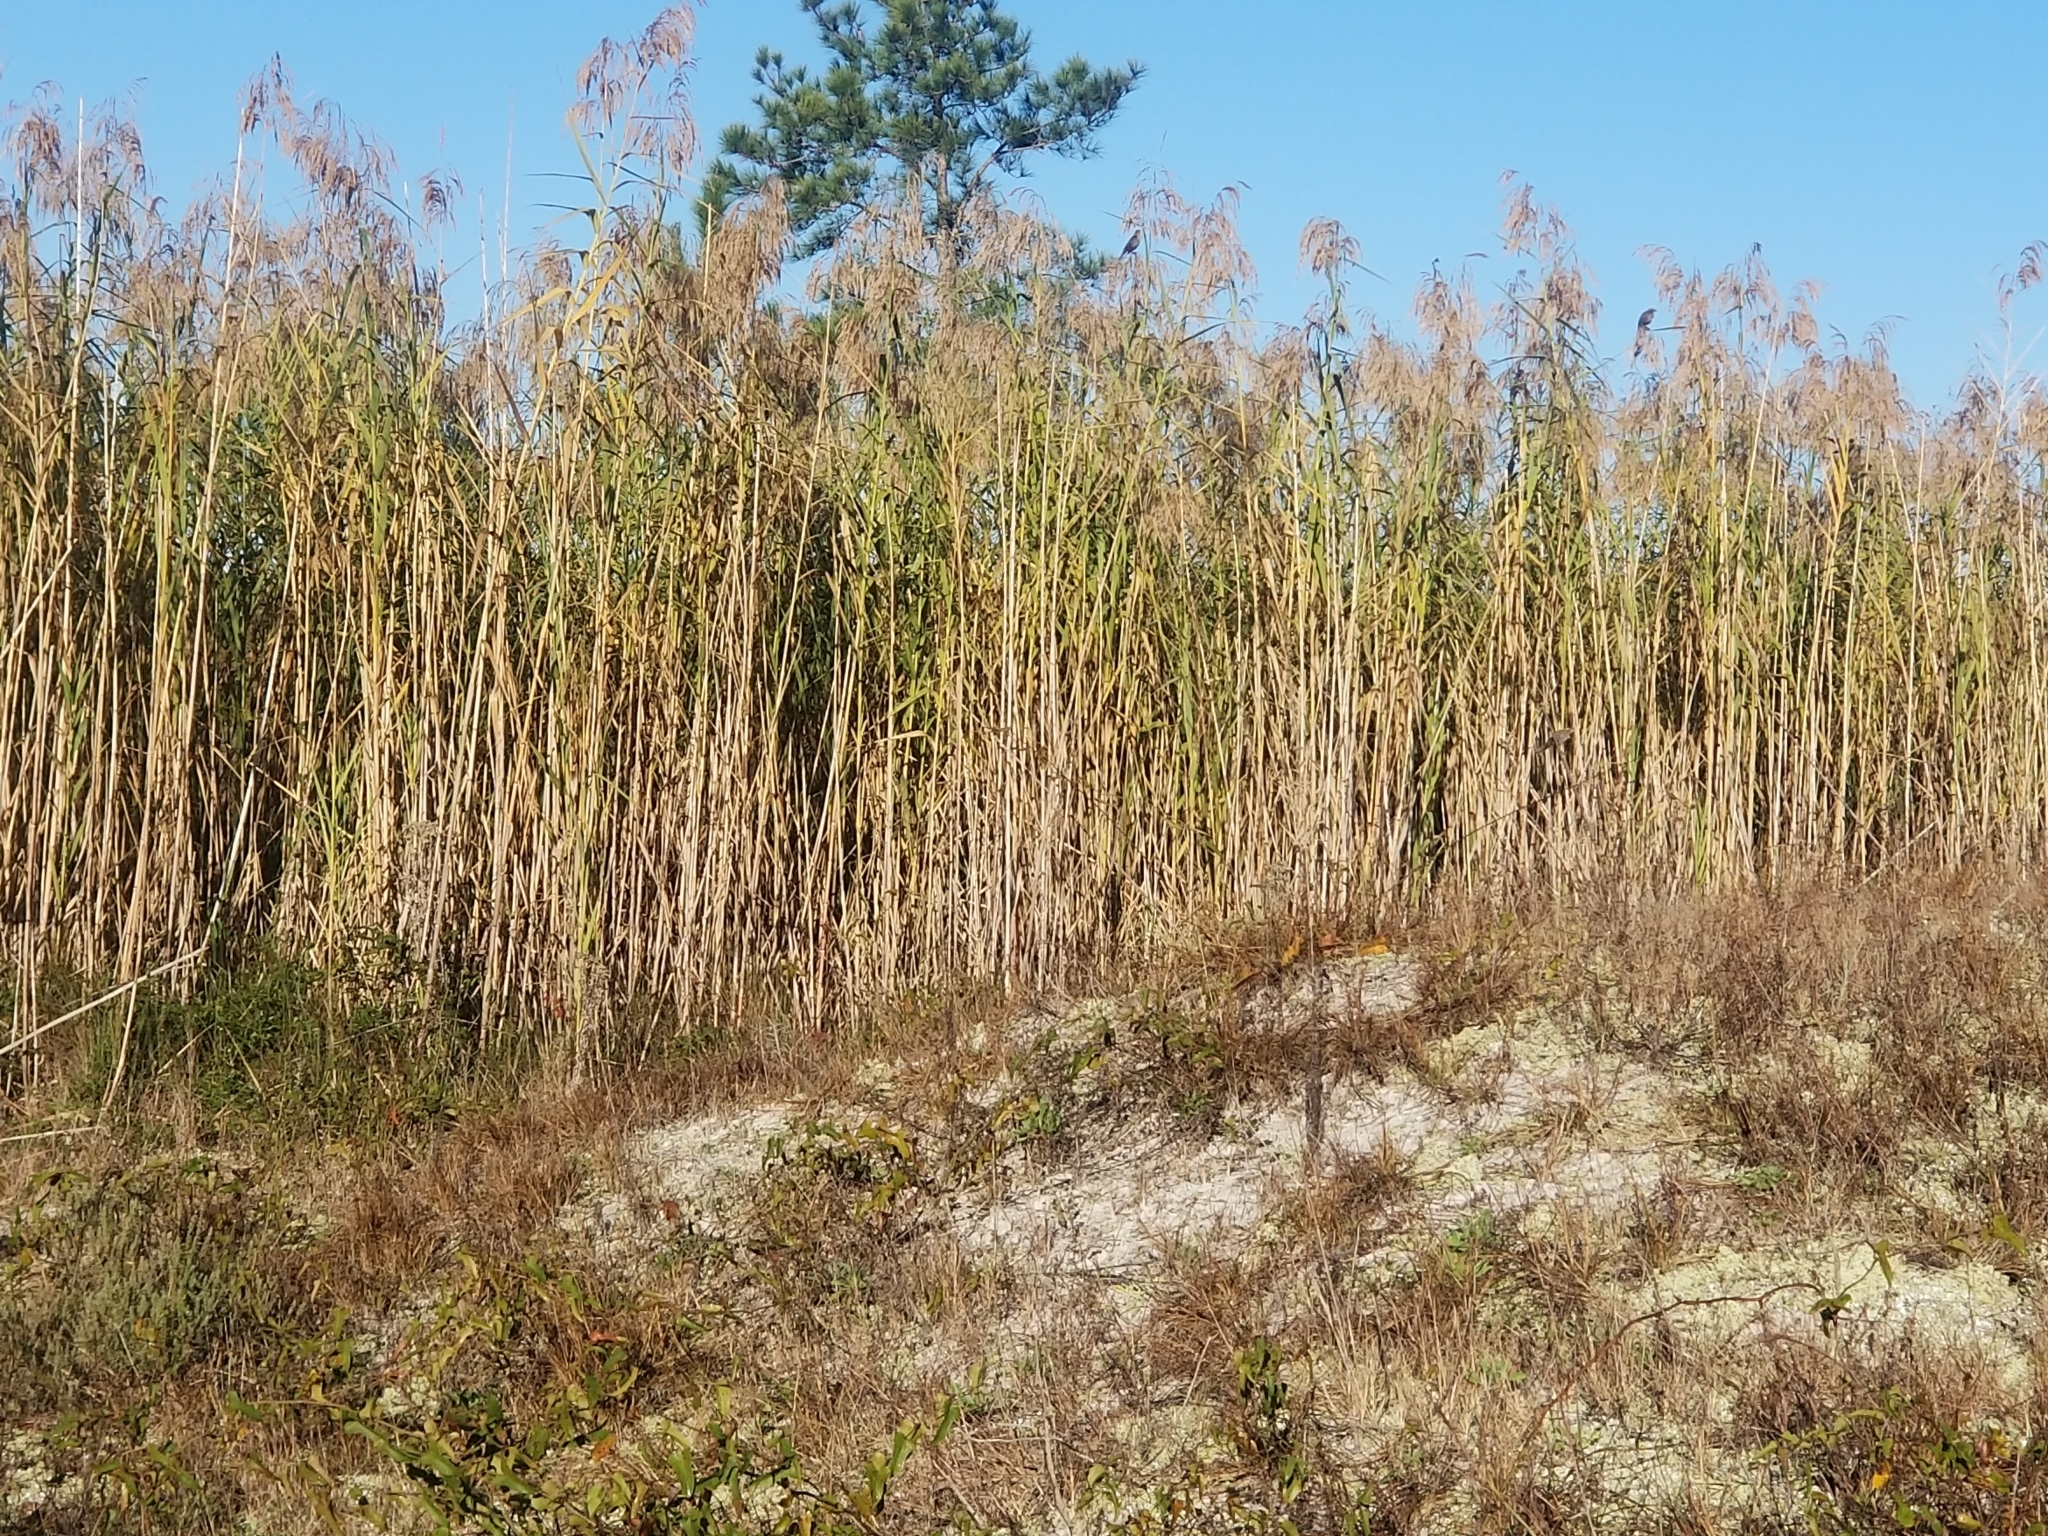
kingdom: Animalia
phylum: Chordata
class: Aves
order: Passeriformes
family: Icteridae
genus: Agelaius
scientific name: Agelaius phoeniceus
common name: Red-winged blackbird
